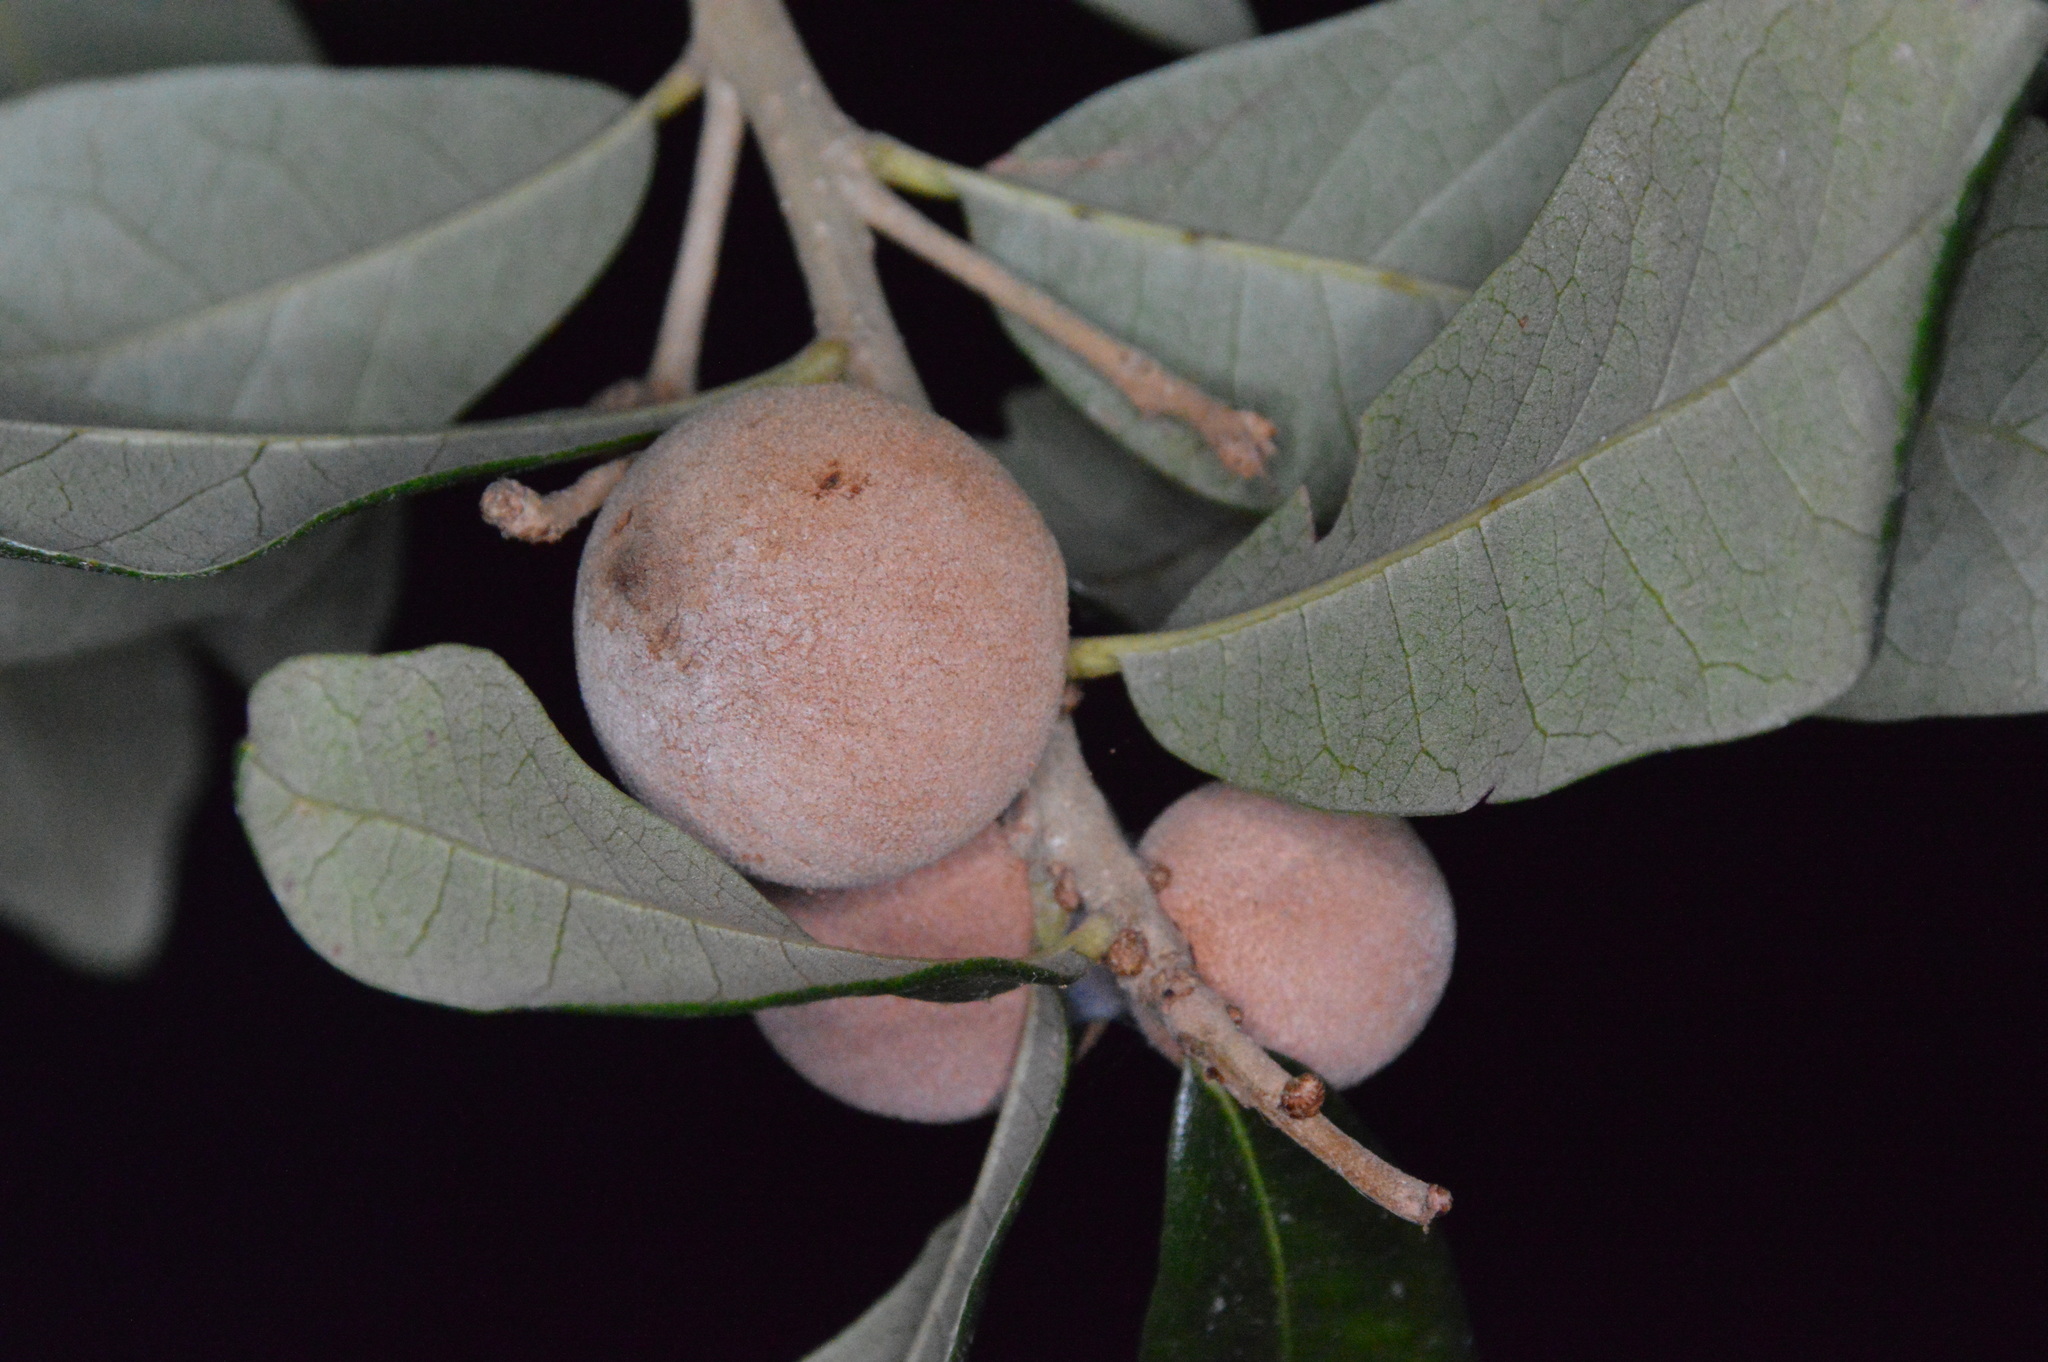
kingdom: Animalia
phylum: Arthropoda
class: Insecta
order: Hymenoptera
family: Cynipidae
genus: Disholcaspis
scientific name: Disholcaspis
